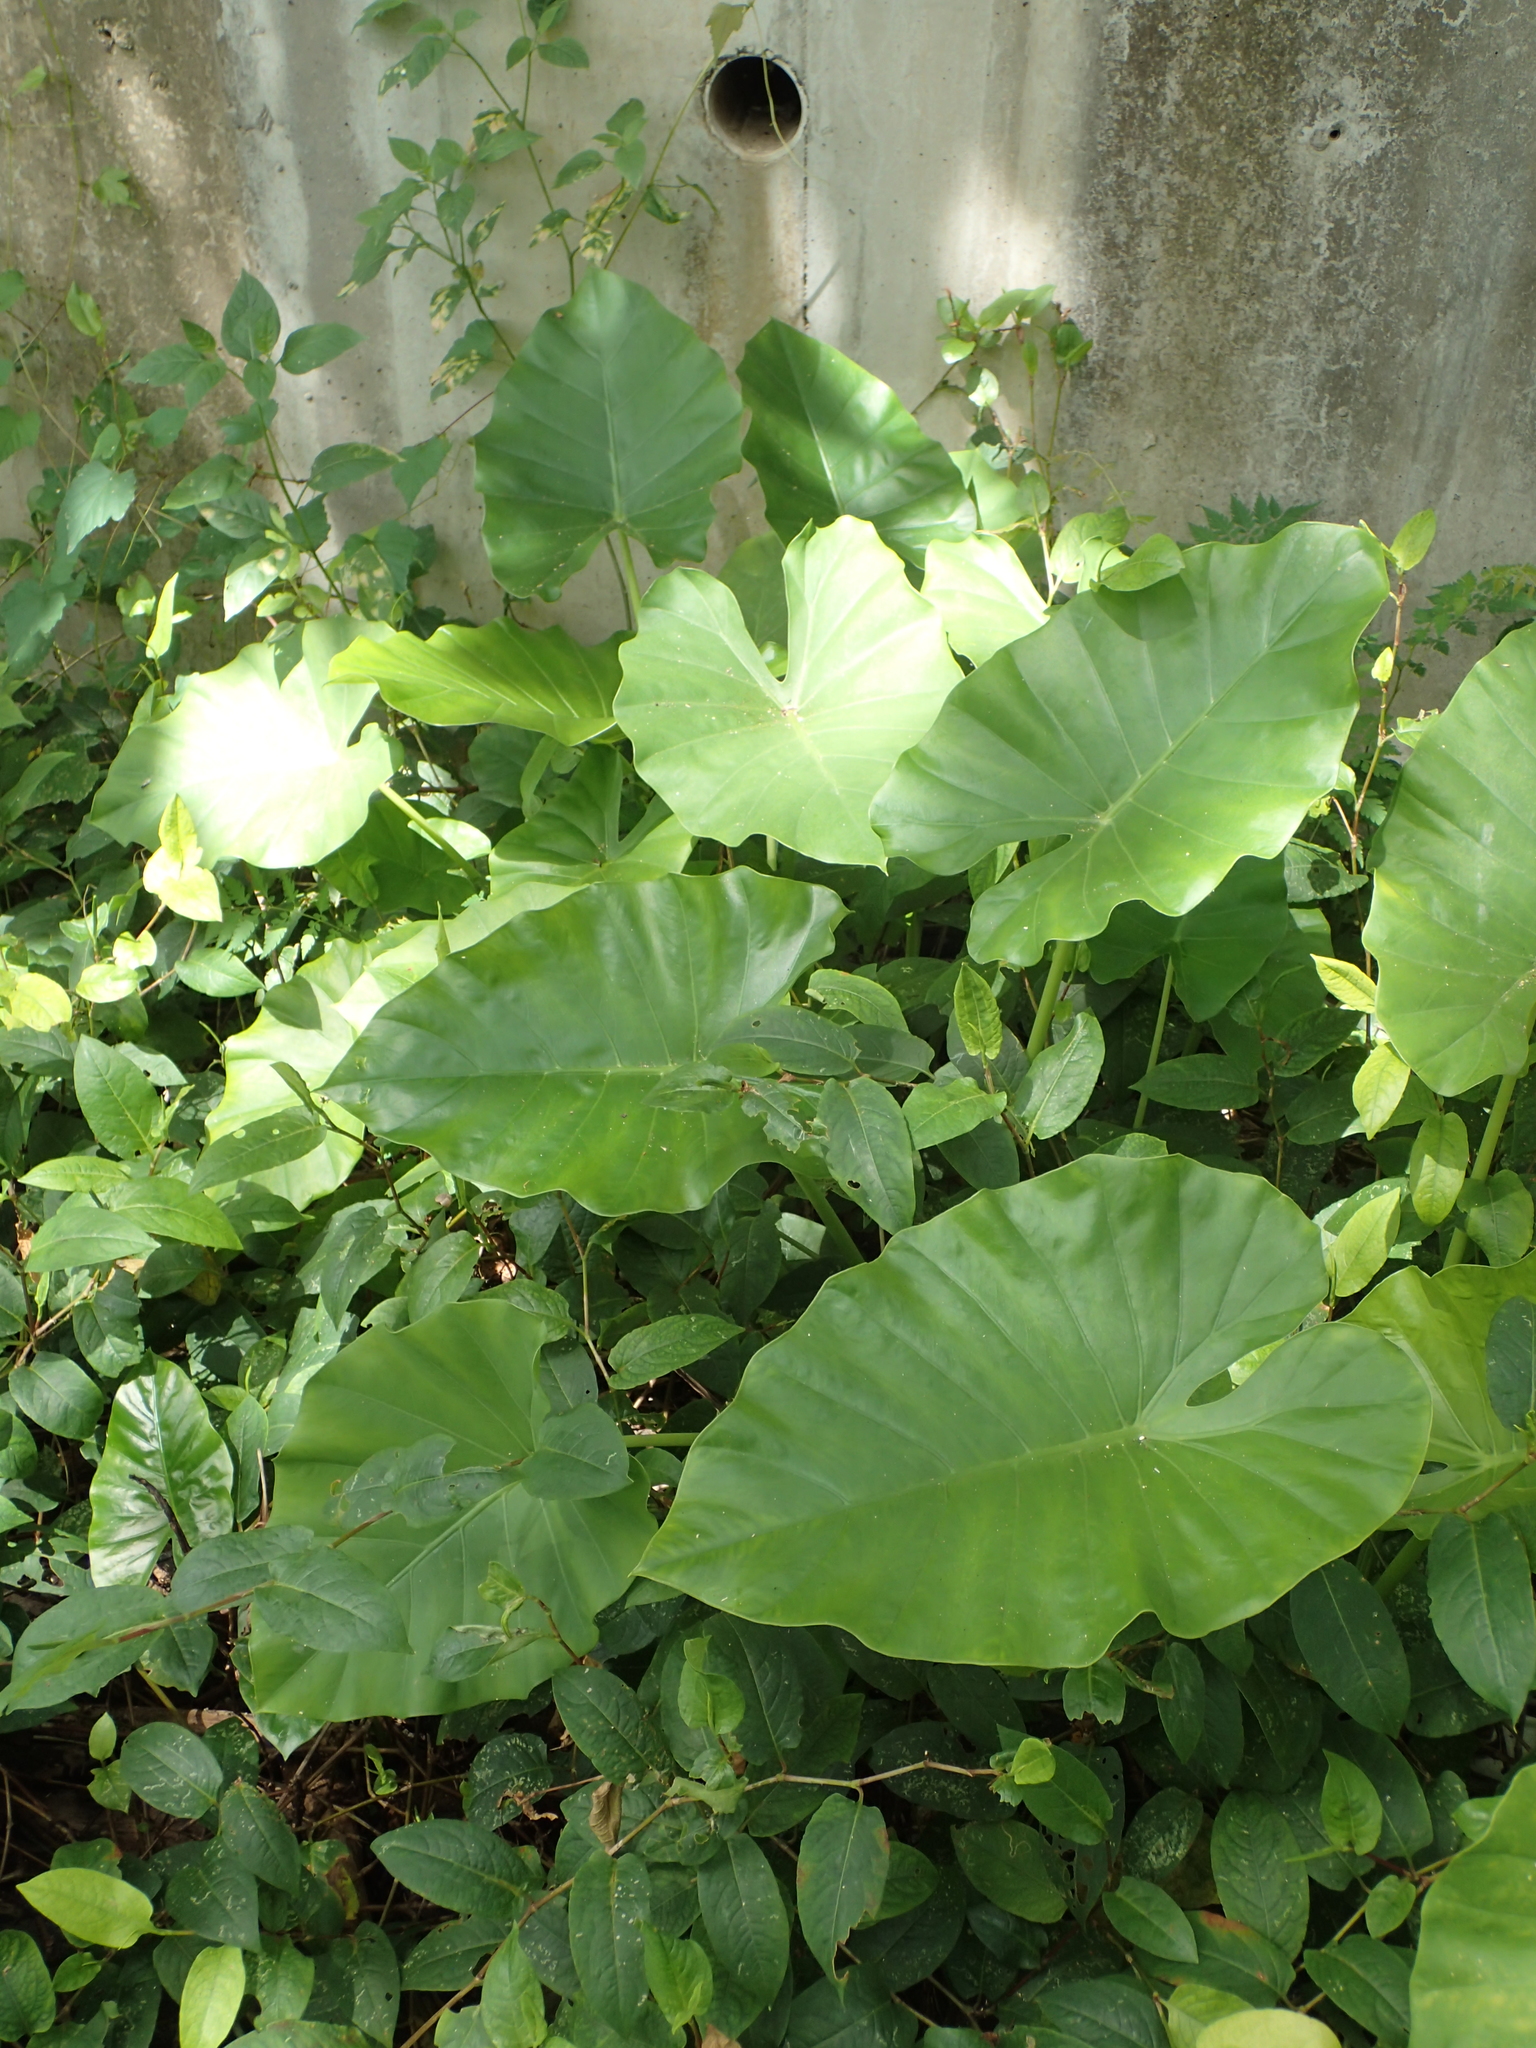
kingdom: Plantae
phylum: Tracheophyta
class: Liliopsida
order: Alismatales
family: Araceae
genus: Alocasia
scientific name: Alocasia odora
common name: Asian taro
